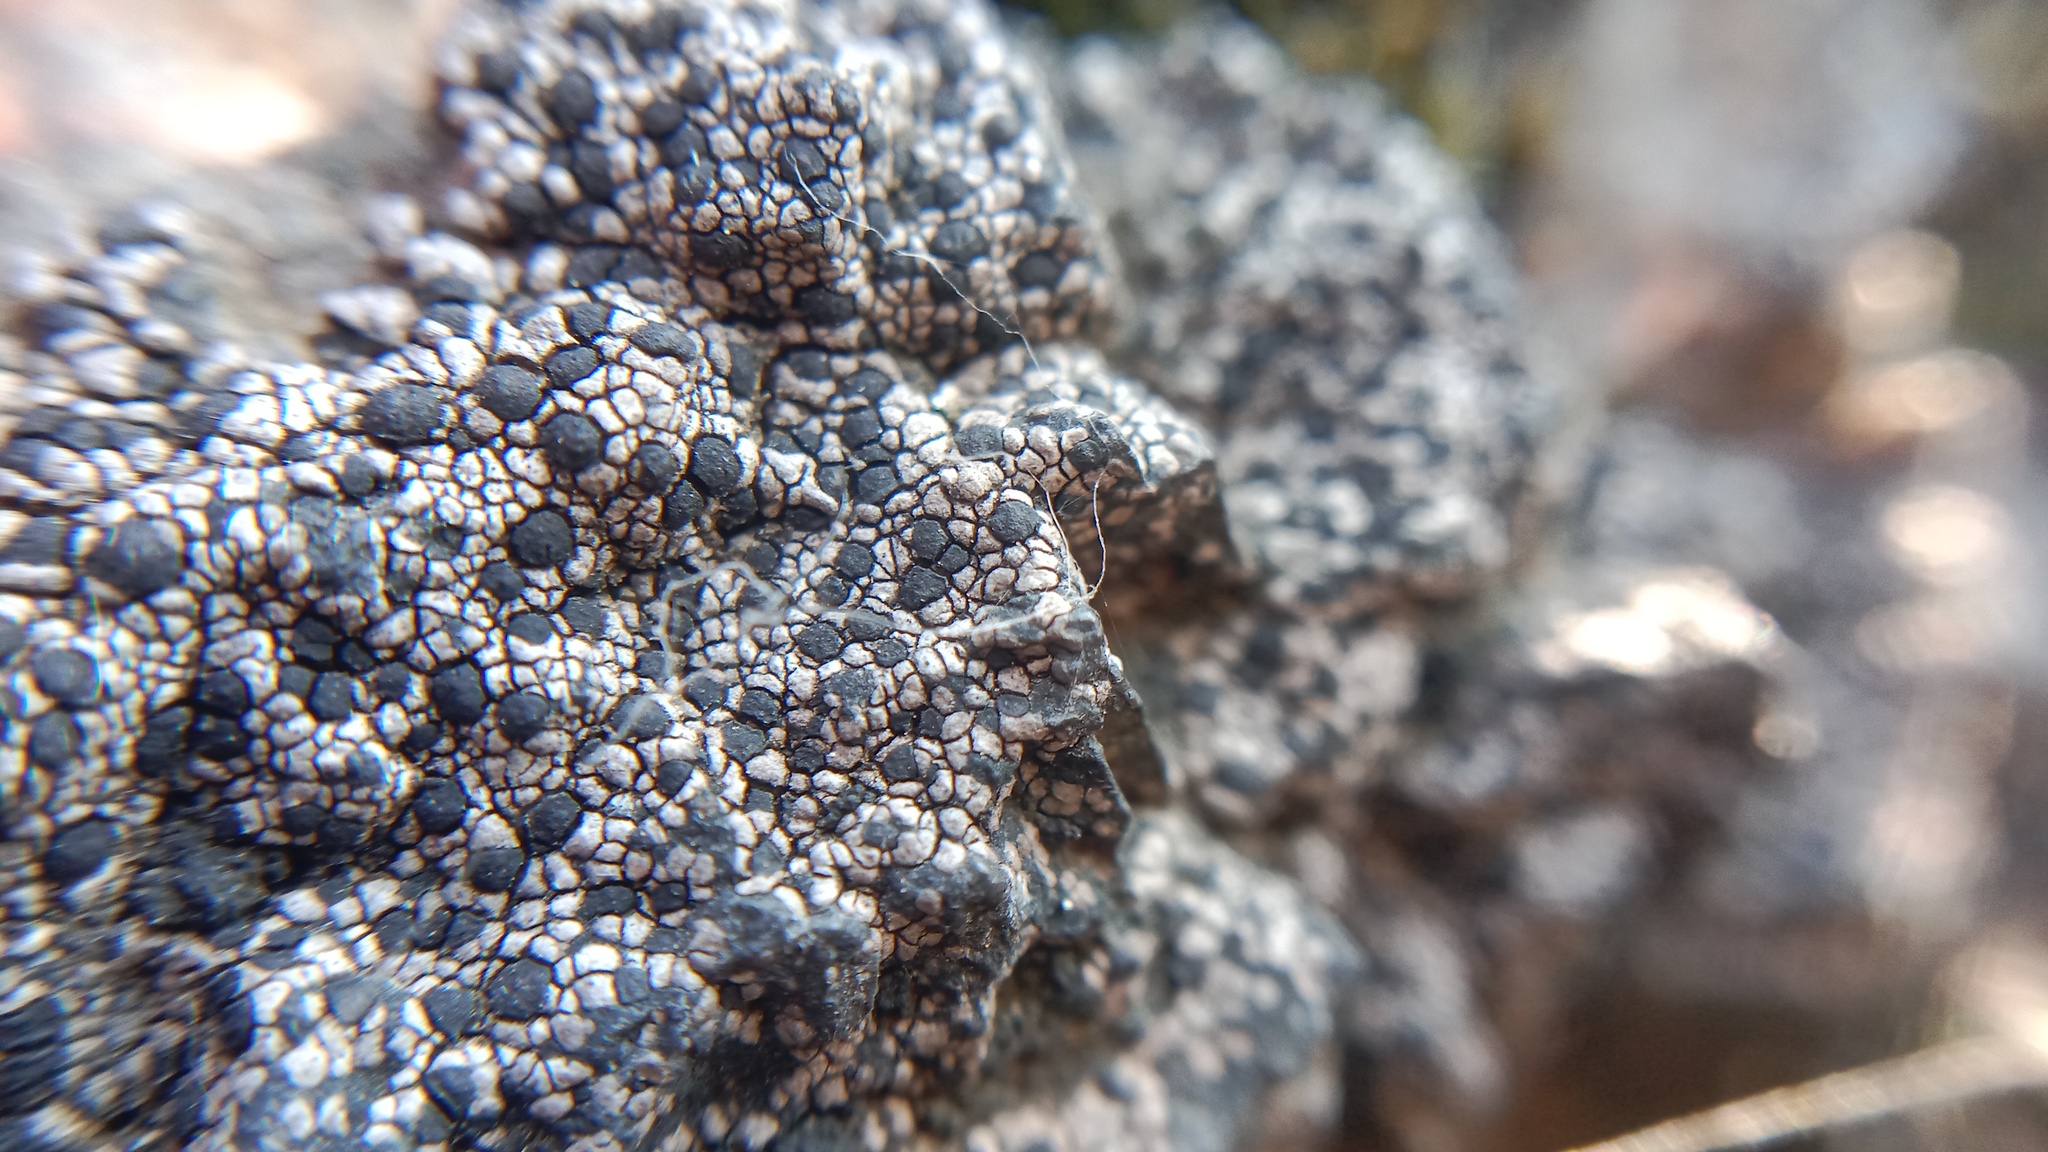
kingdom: Fungi
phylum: Ascomycota
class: Lecanoromycetes
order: Rhizocarpales
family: Rhizocarpaceae
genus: Rhizocarpon
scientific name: Rhizocarpon distinctum
